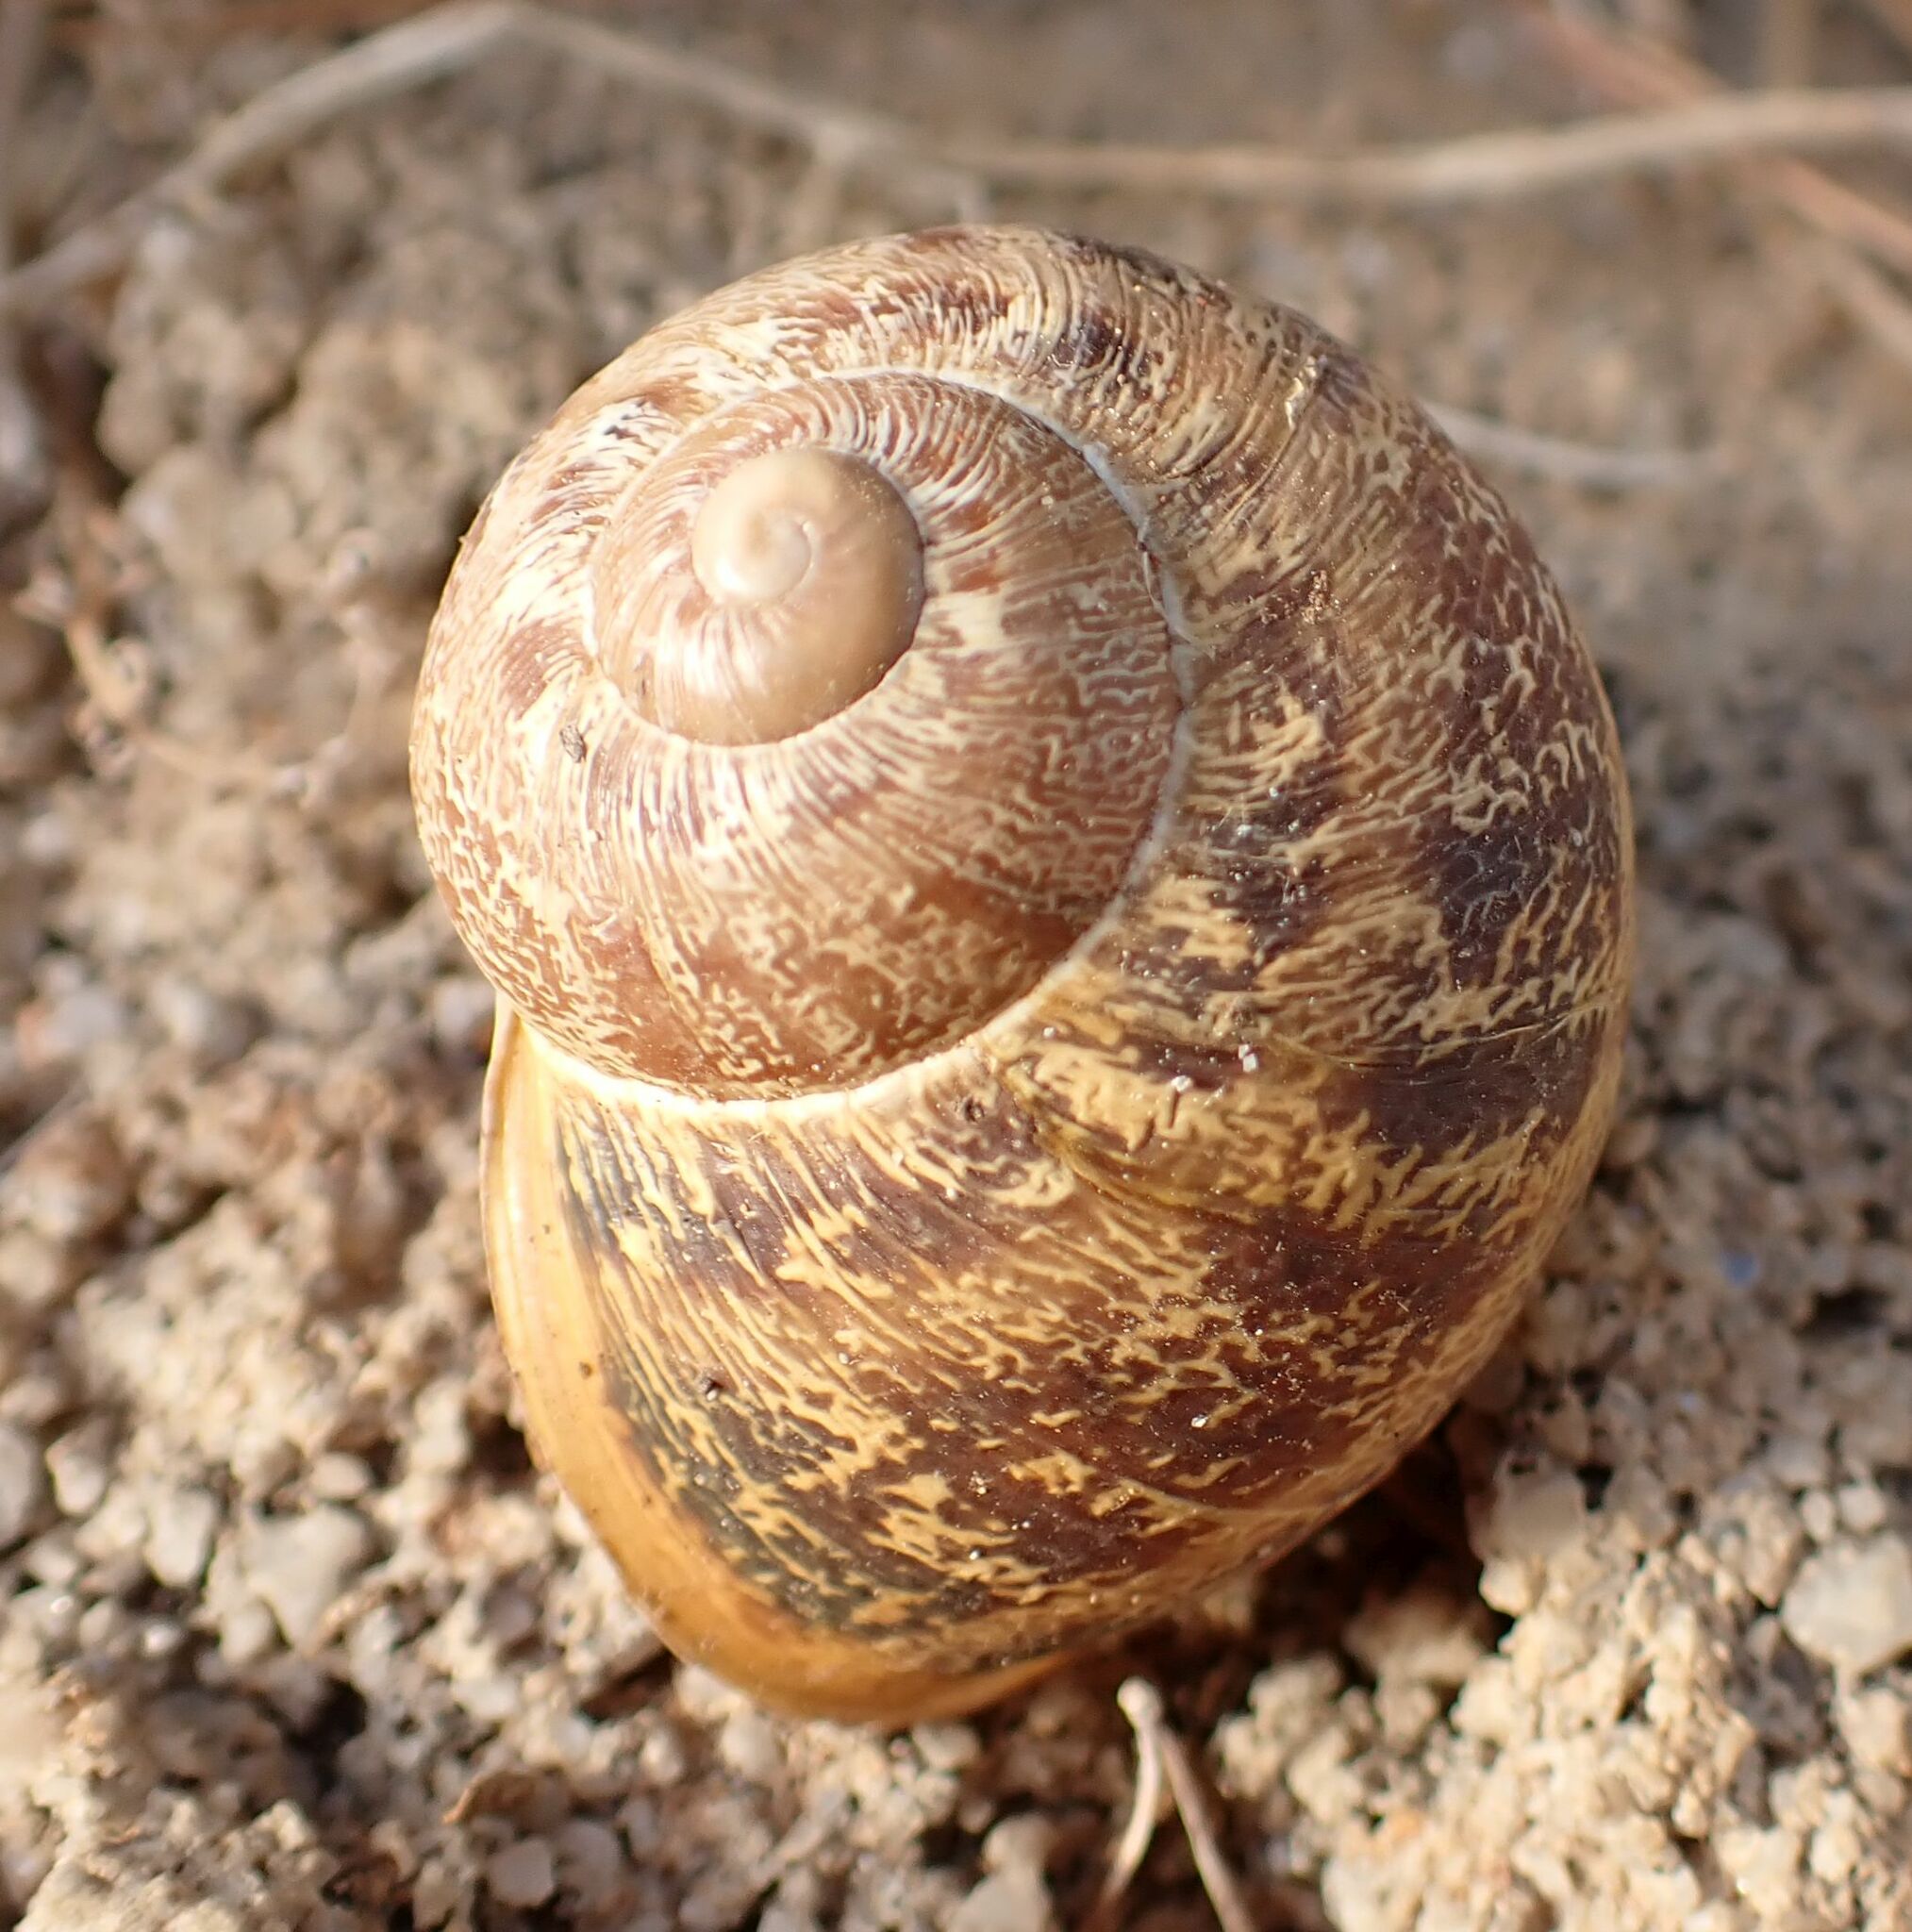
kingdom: Animalia
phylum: Mollusca
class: Gastropoda
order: Stylommatophora
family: Helicidae
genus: Cornu
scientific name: Cornu aspersum
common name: Brown garden snail
